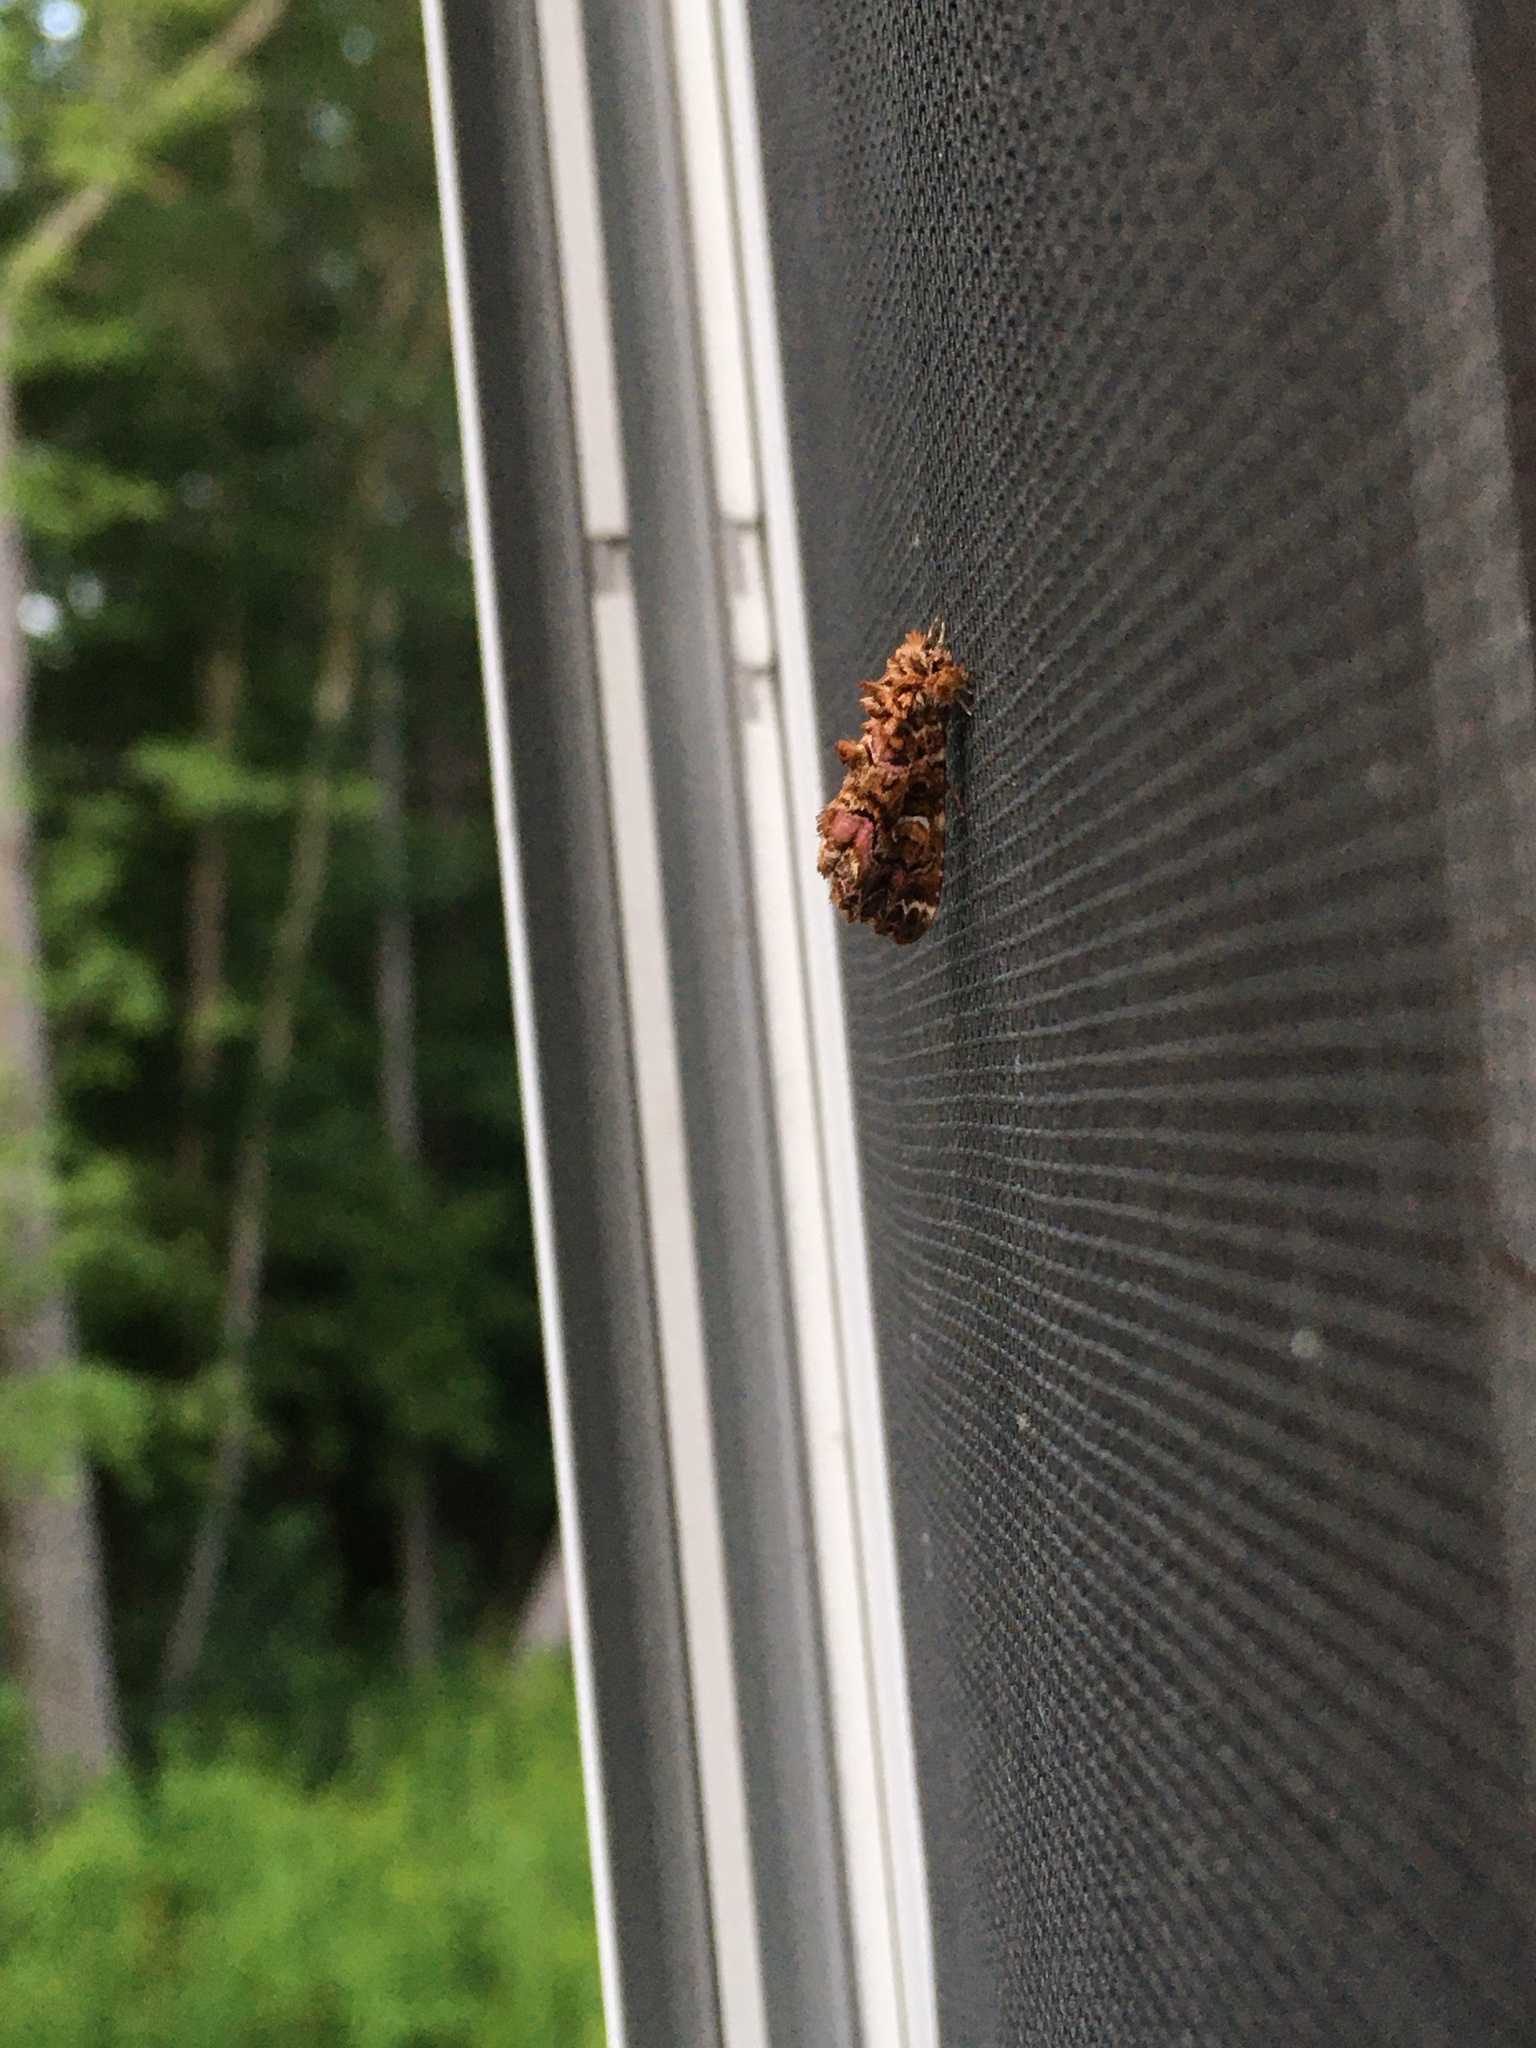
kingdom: Animalia
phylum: Arthropoda
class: Insecta
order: Lepidoptera
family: Noctuidae
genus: Callopistria
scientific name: Callopistria mollissima
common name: Pink-shaded fern moth
